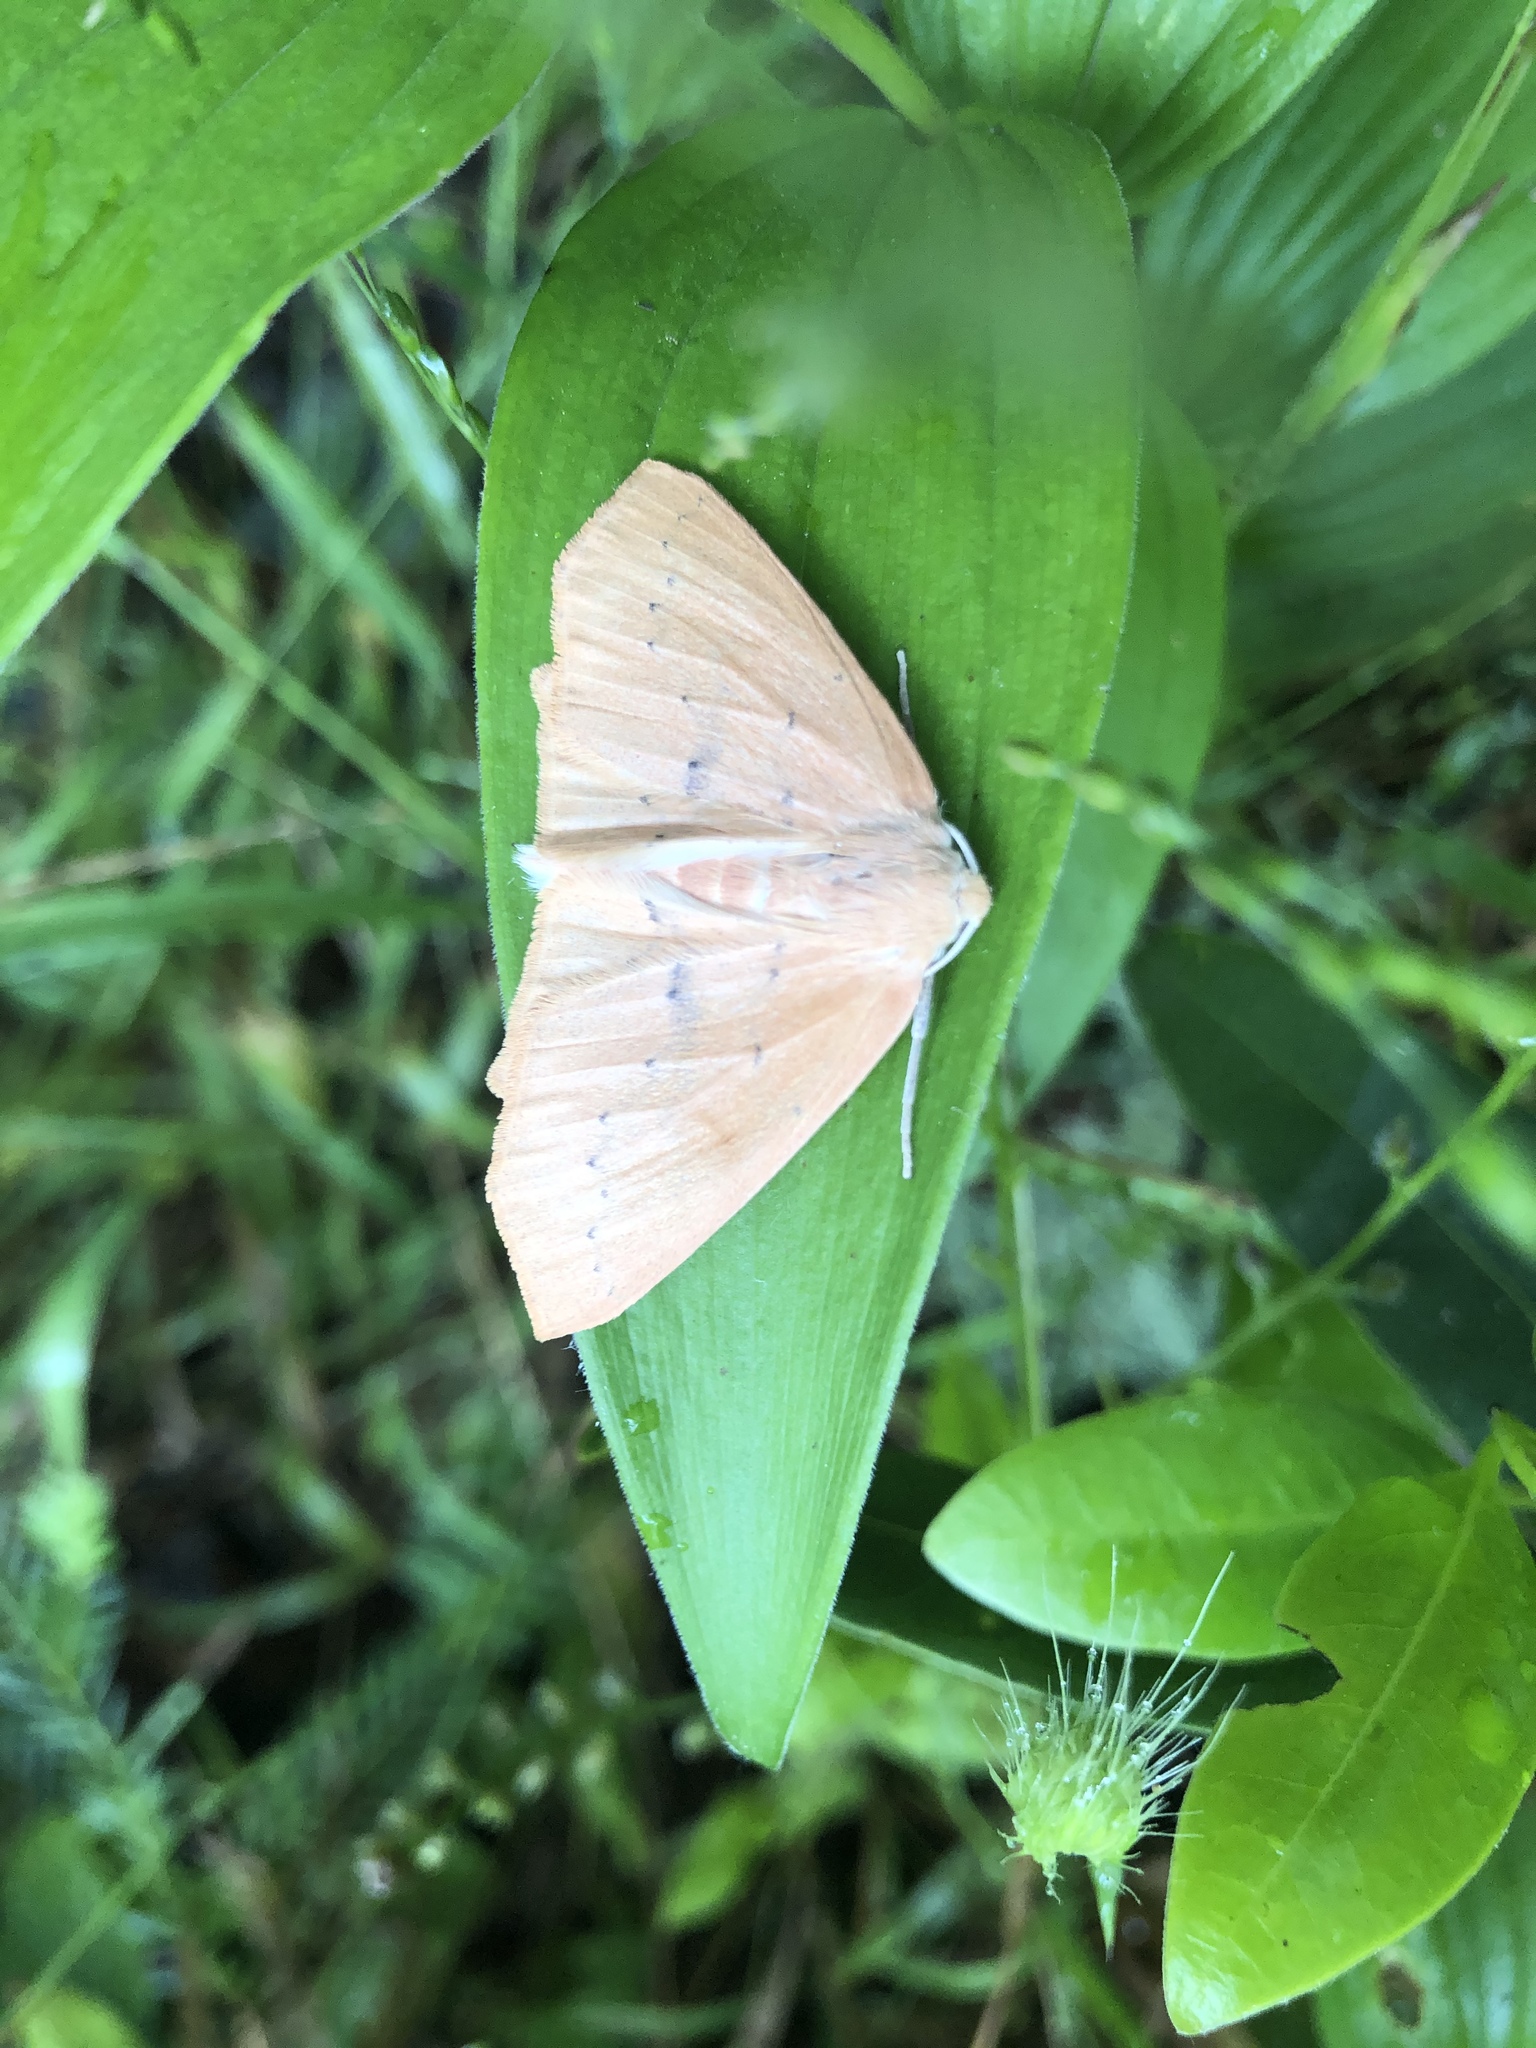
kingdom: Animalia
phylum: Arthropoda
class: Insecta
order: Lepidoptera
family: Geometridae
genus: Sabulodes
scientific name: Sabulodes aegrotata
